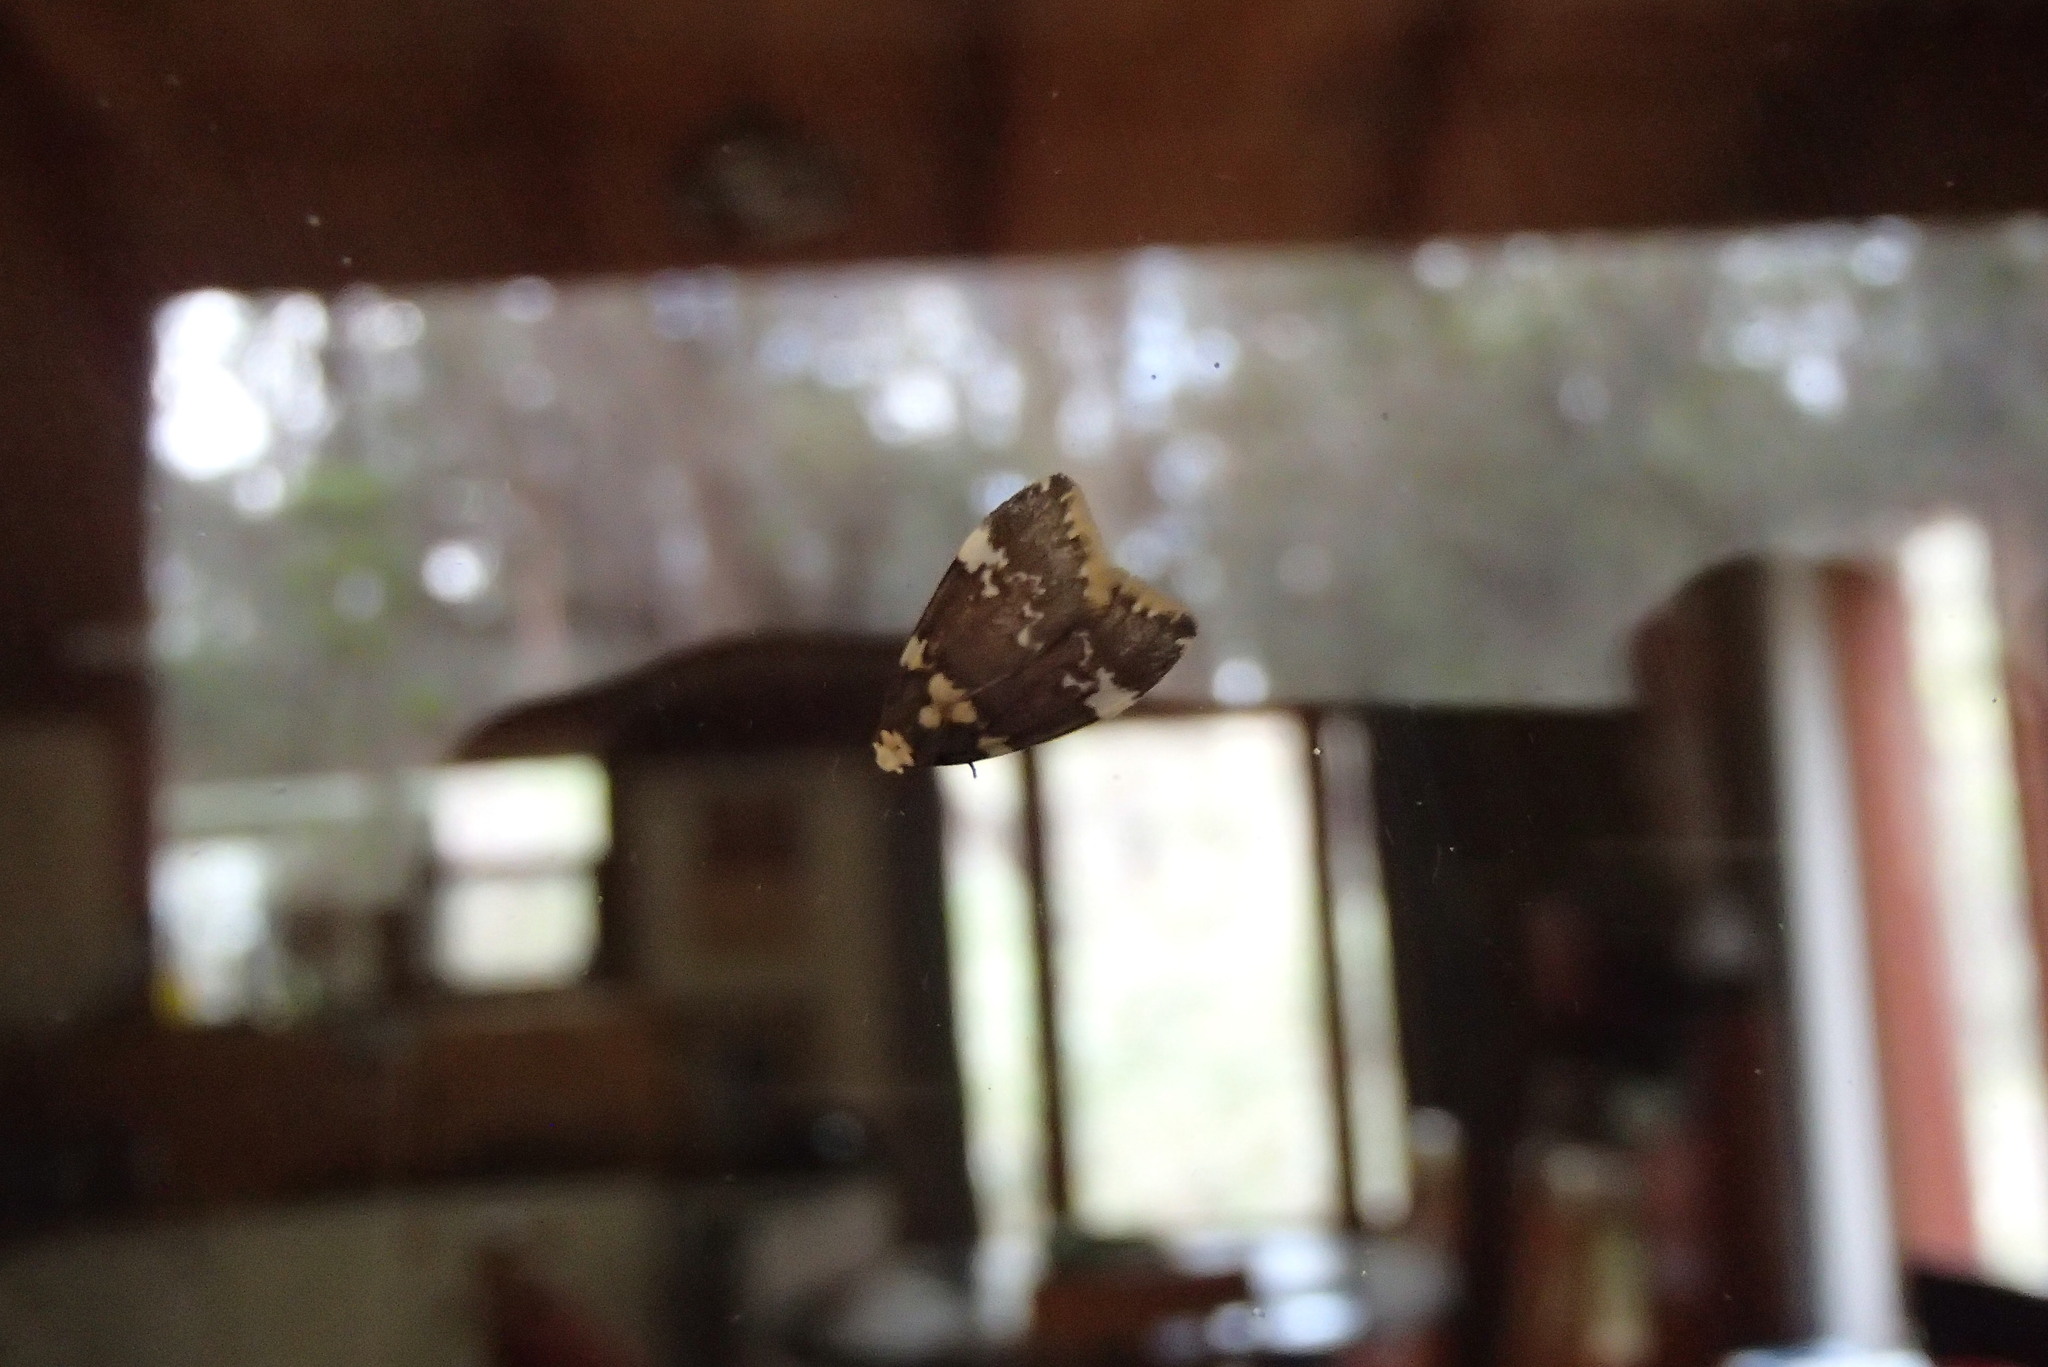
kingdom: Animalia
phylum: Arthropoda
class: Insecta
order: Lepidoptera
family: Erebidae
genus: Halone
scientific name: Halone pteridaula
